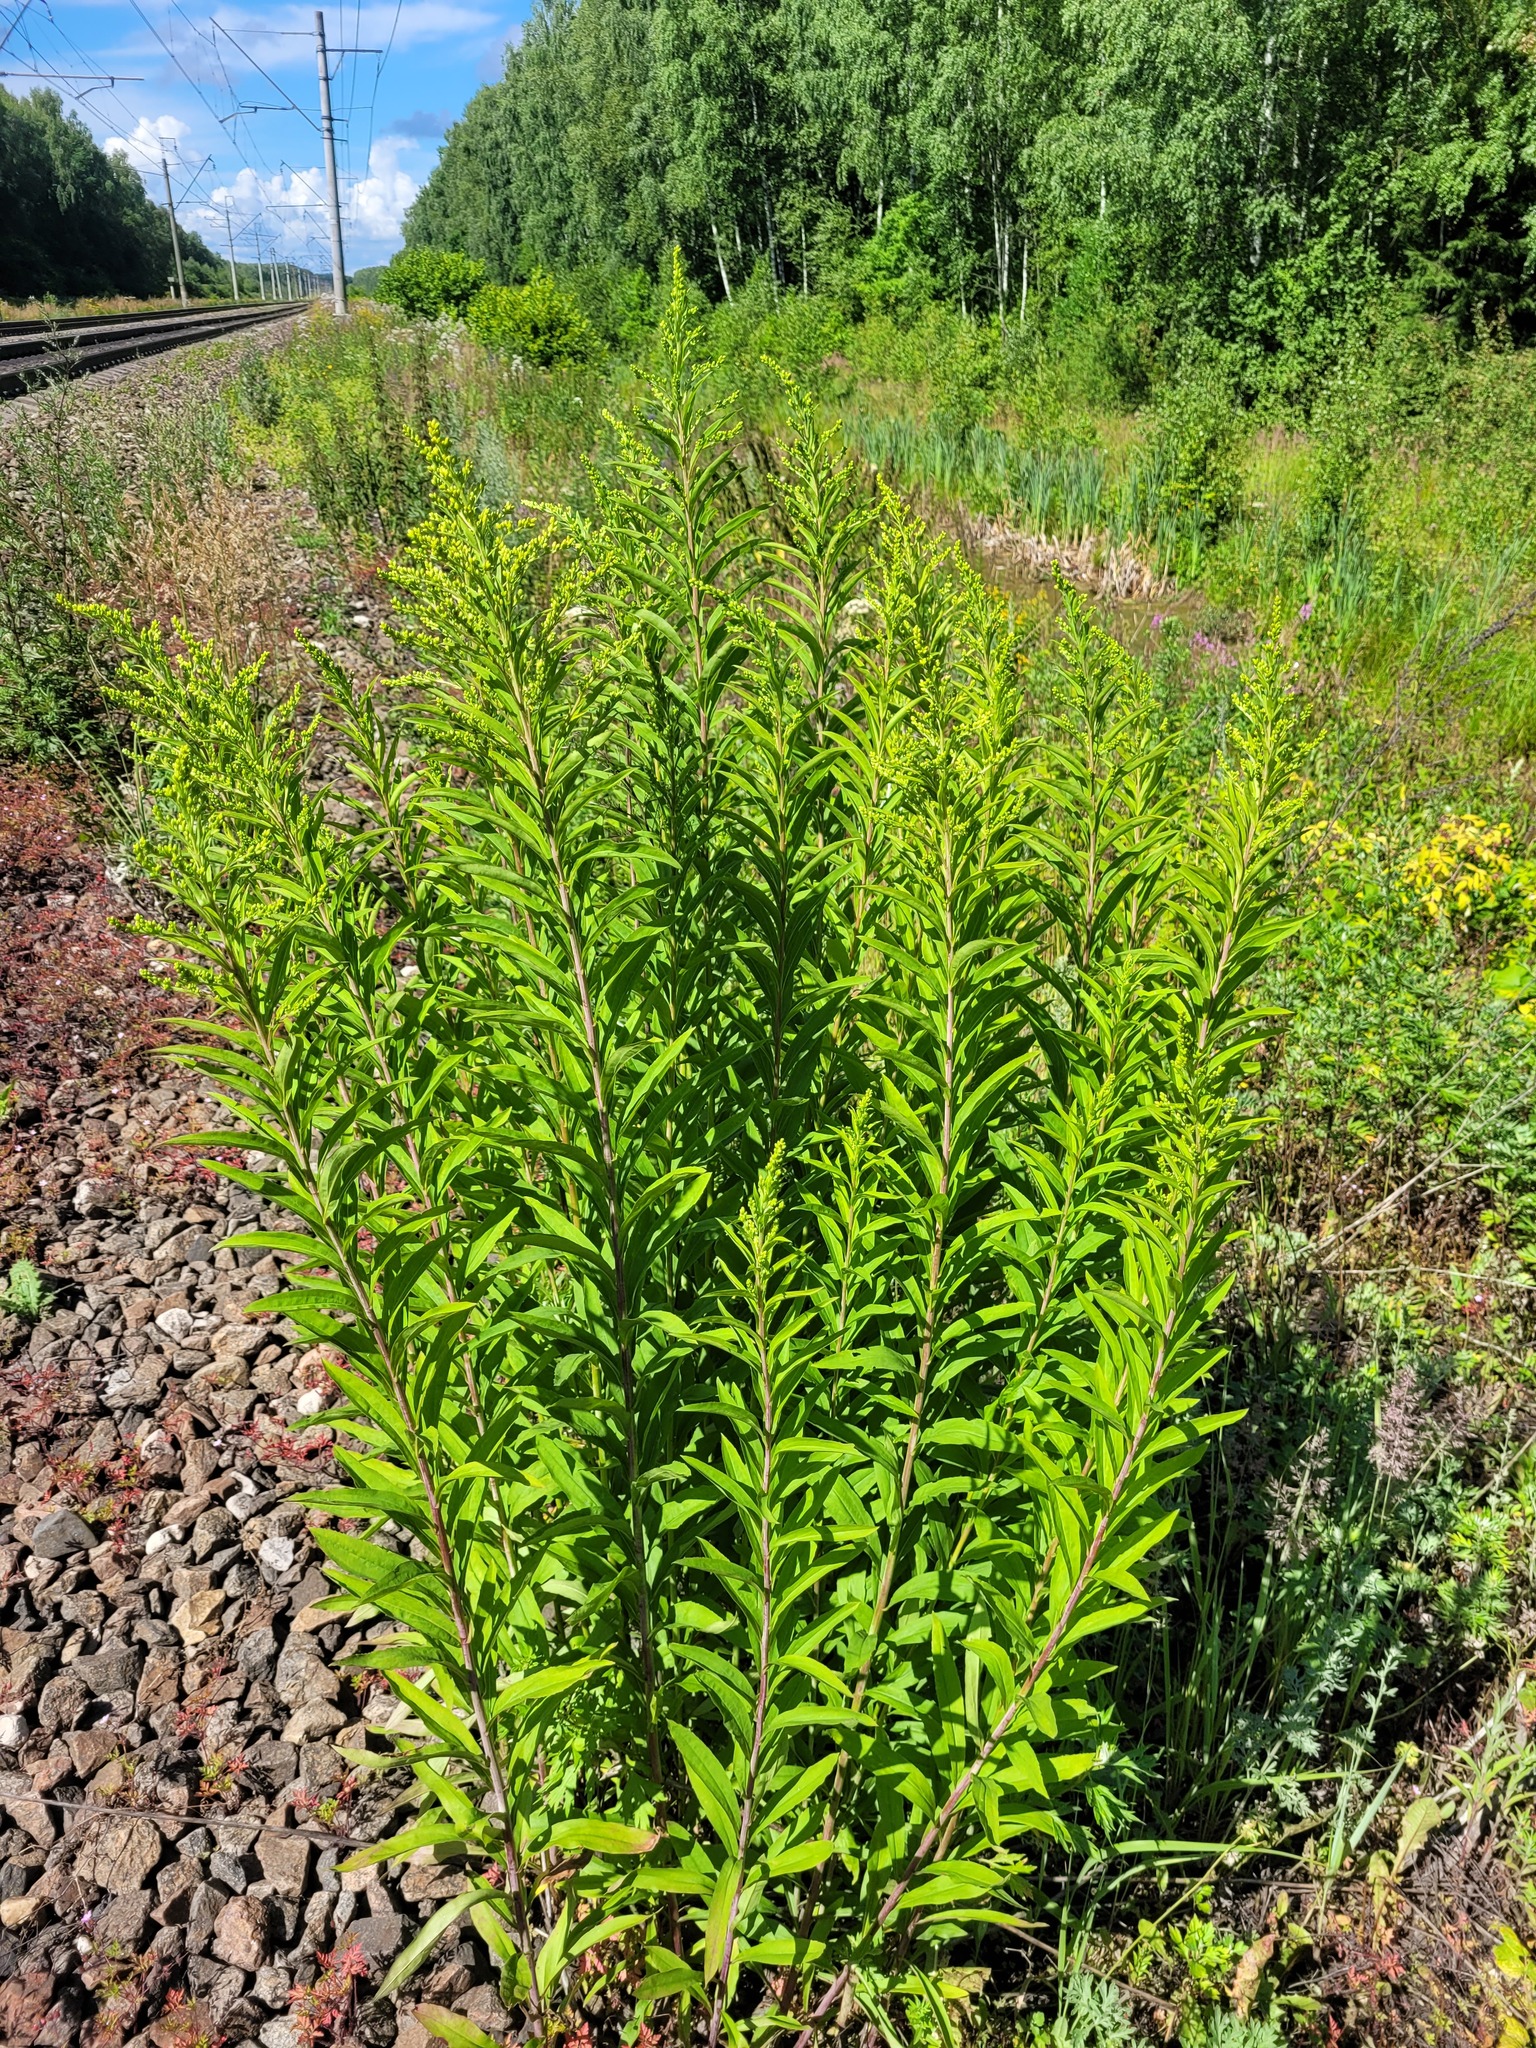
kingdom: Plantae
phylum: Tracheophyta
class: Magnoliopsida
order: Asterales
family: Asteraceae
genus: Solidago
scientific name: Solidago gigantea
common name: Giant goldenrod
